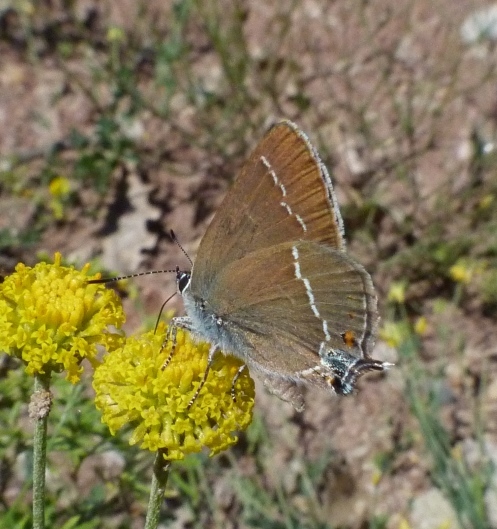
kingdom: Animalia
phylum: Arthropoda
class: Insecta
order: Lepidoptera
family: Lycaenidae
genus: Tuttiola
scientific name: Tuttiola spini
